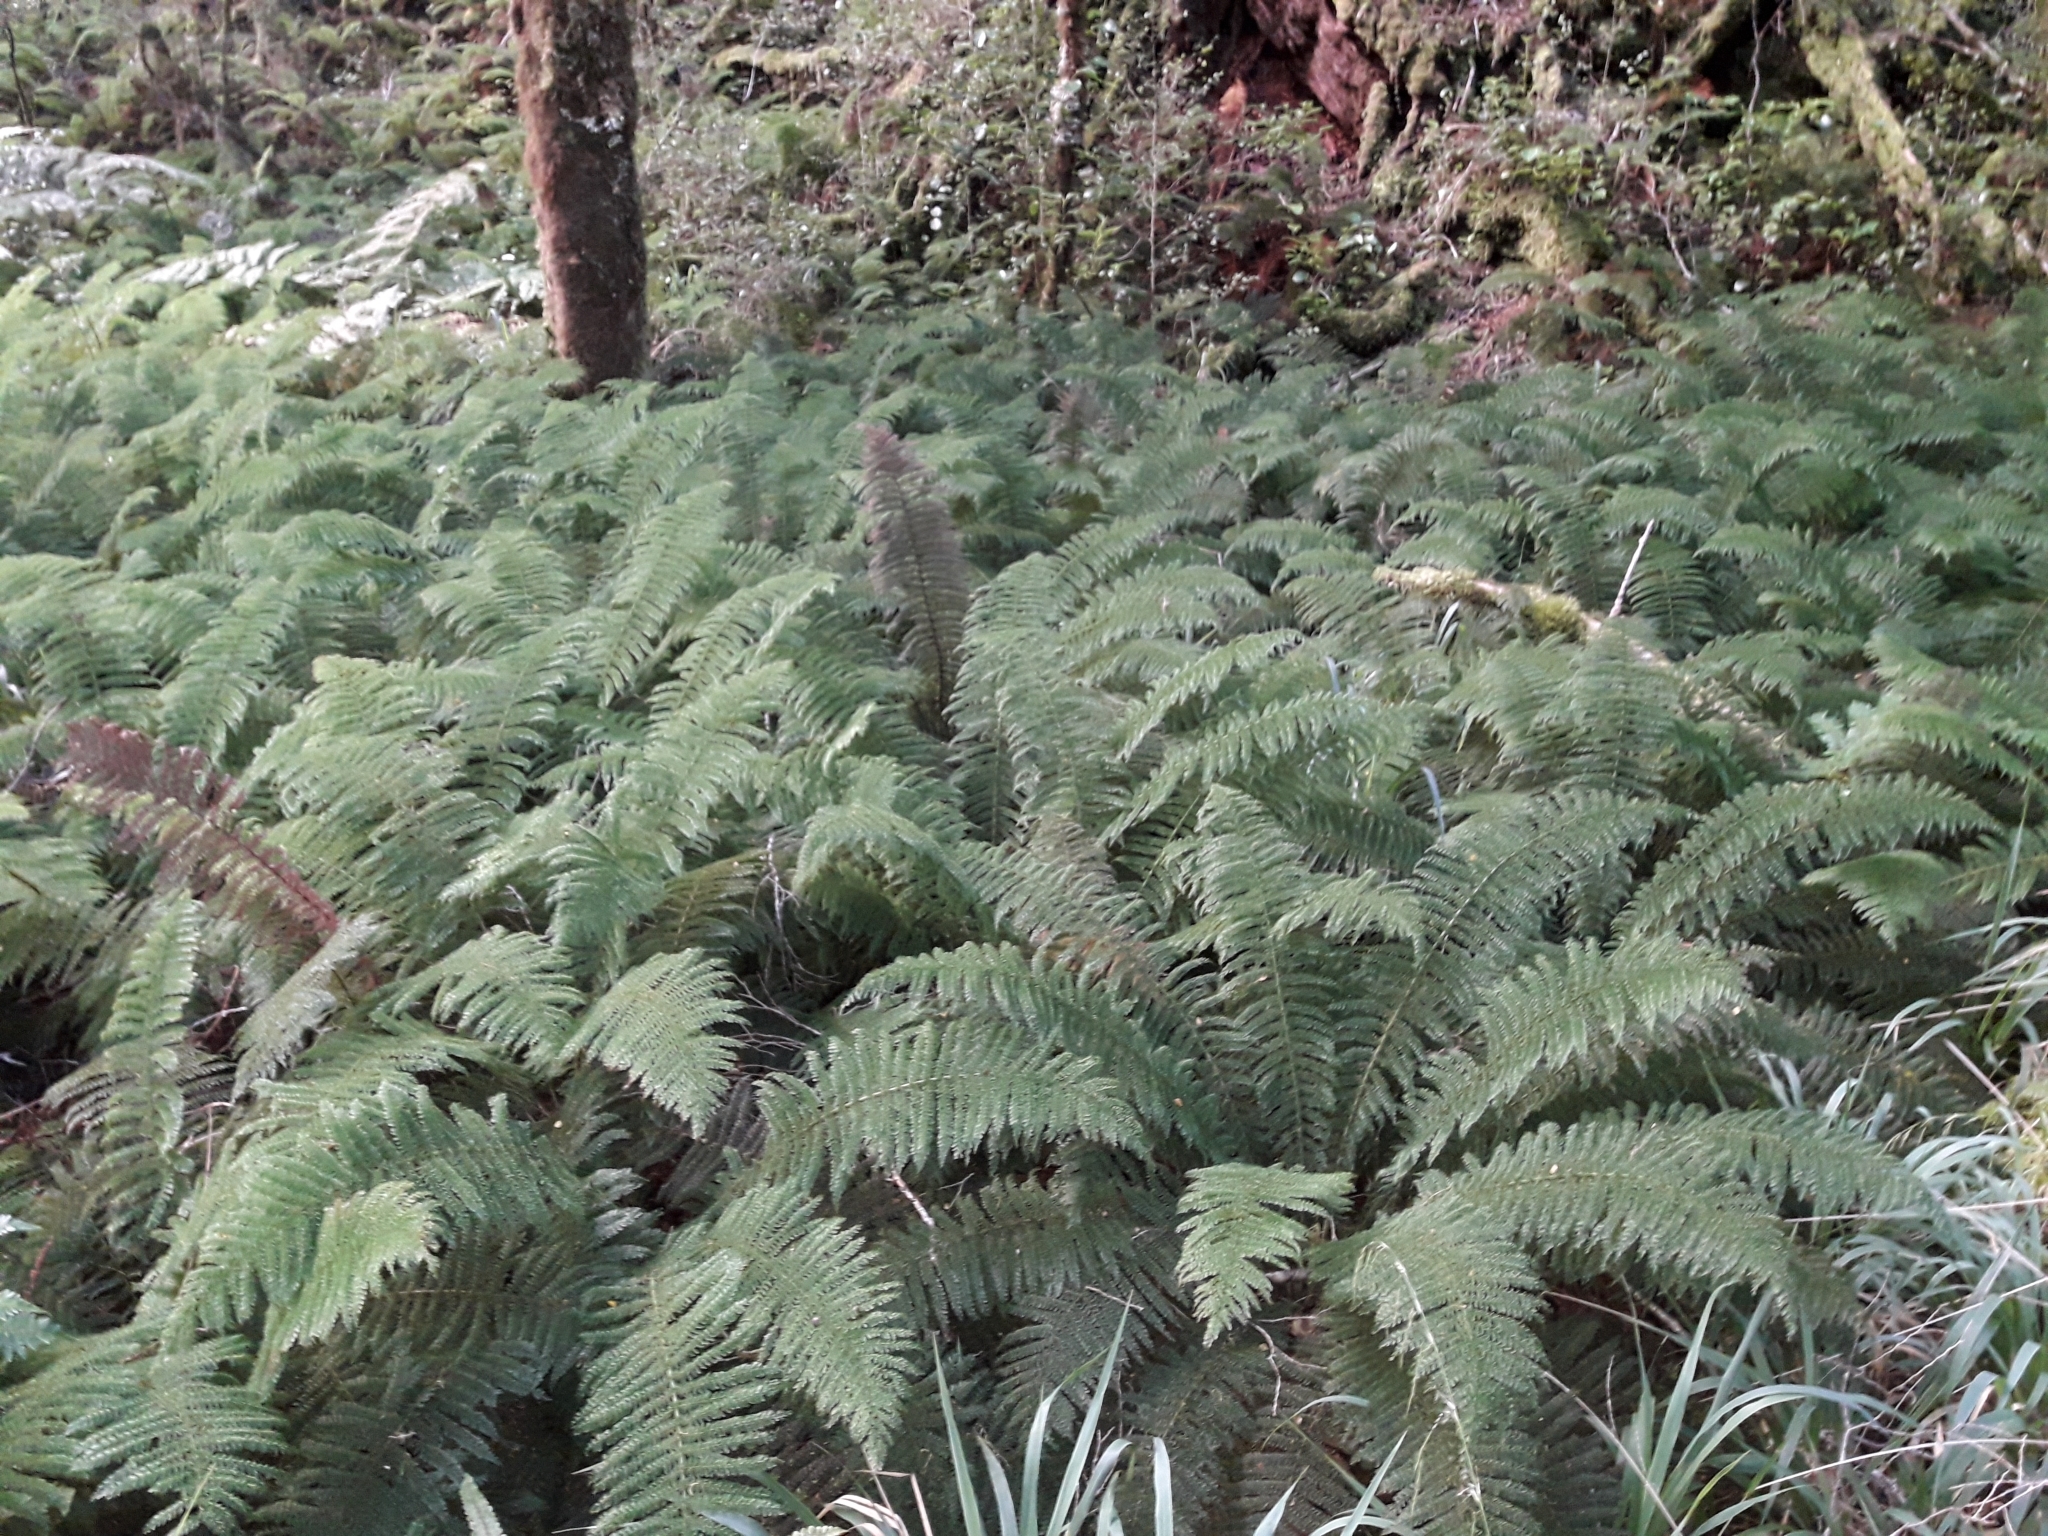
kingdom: Plantae
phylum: Tracheophyta
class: Polypodiopsida
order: Osmundales
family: Osmundaceae
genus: Leptopteris
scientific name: Leptopteris superba
